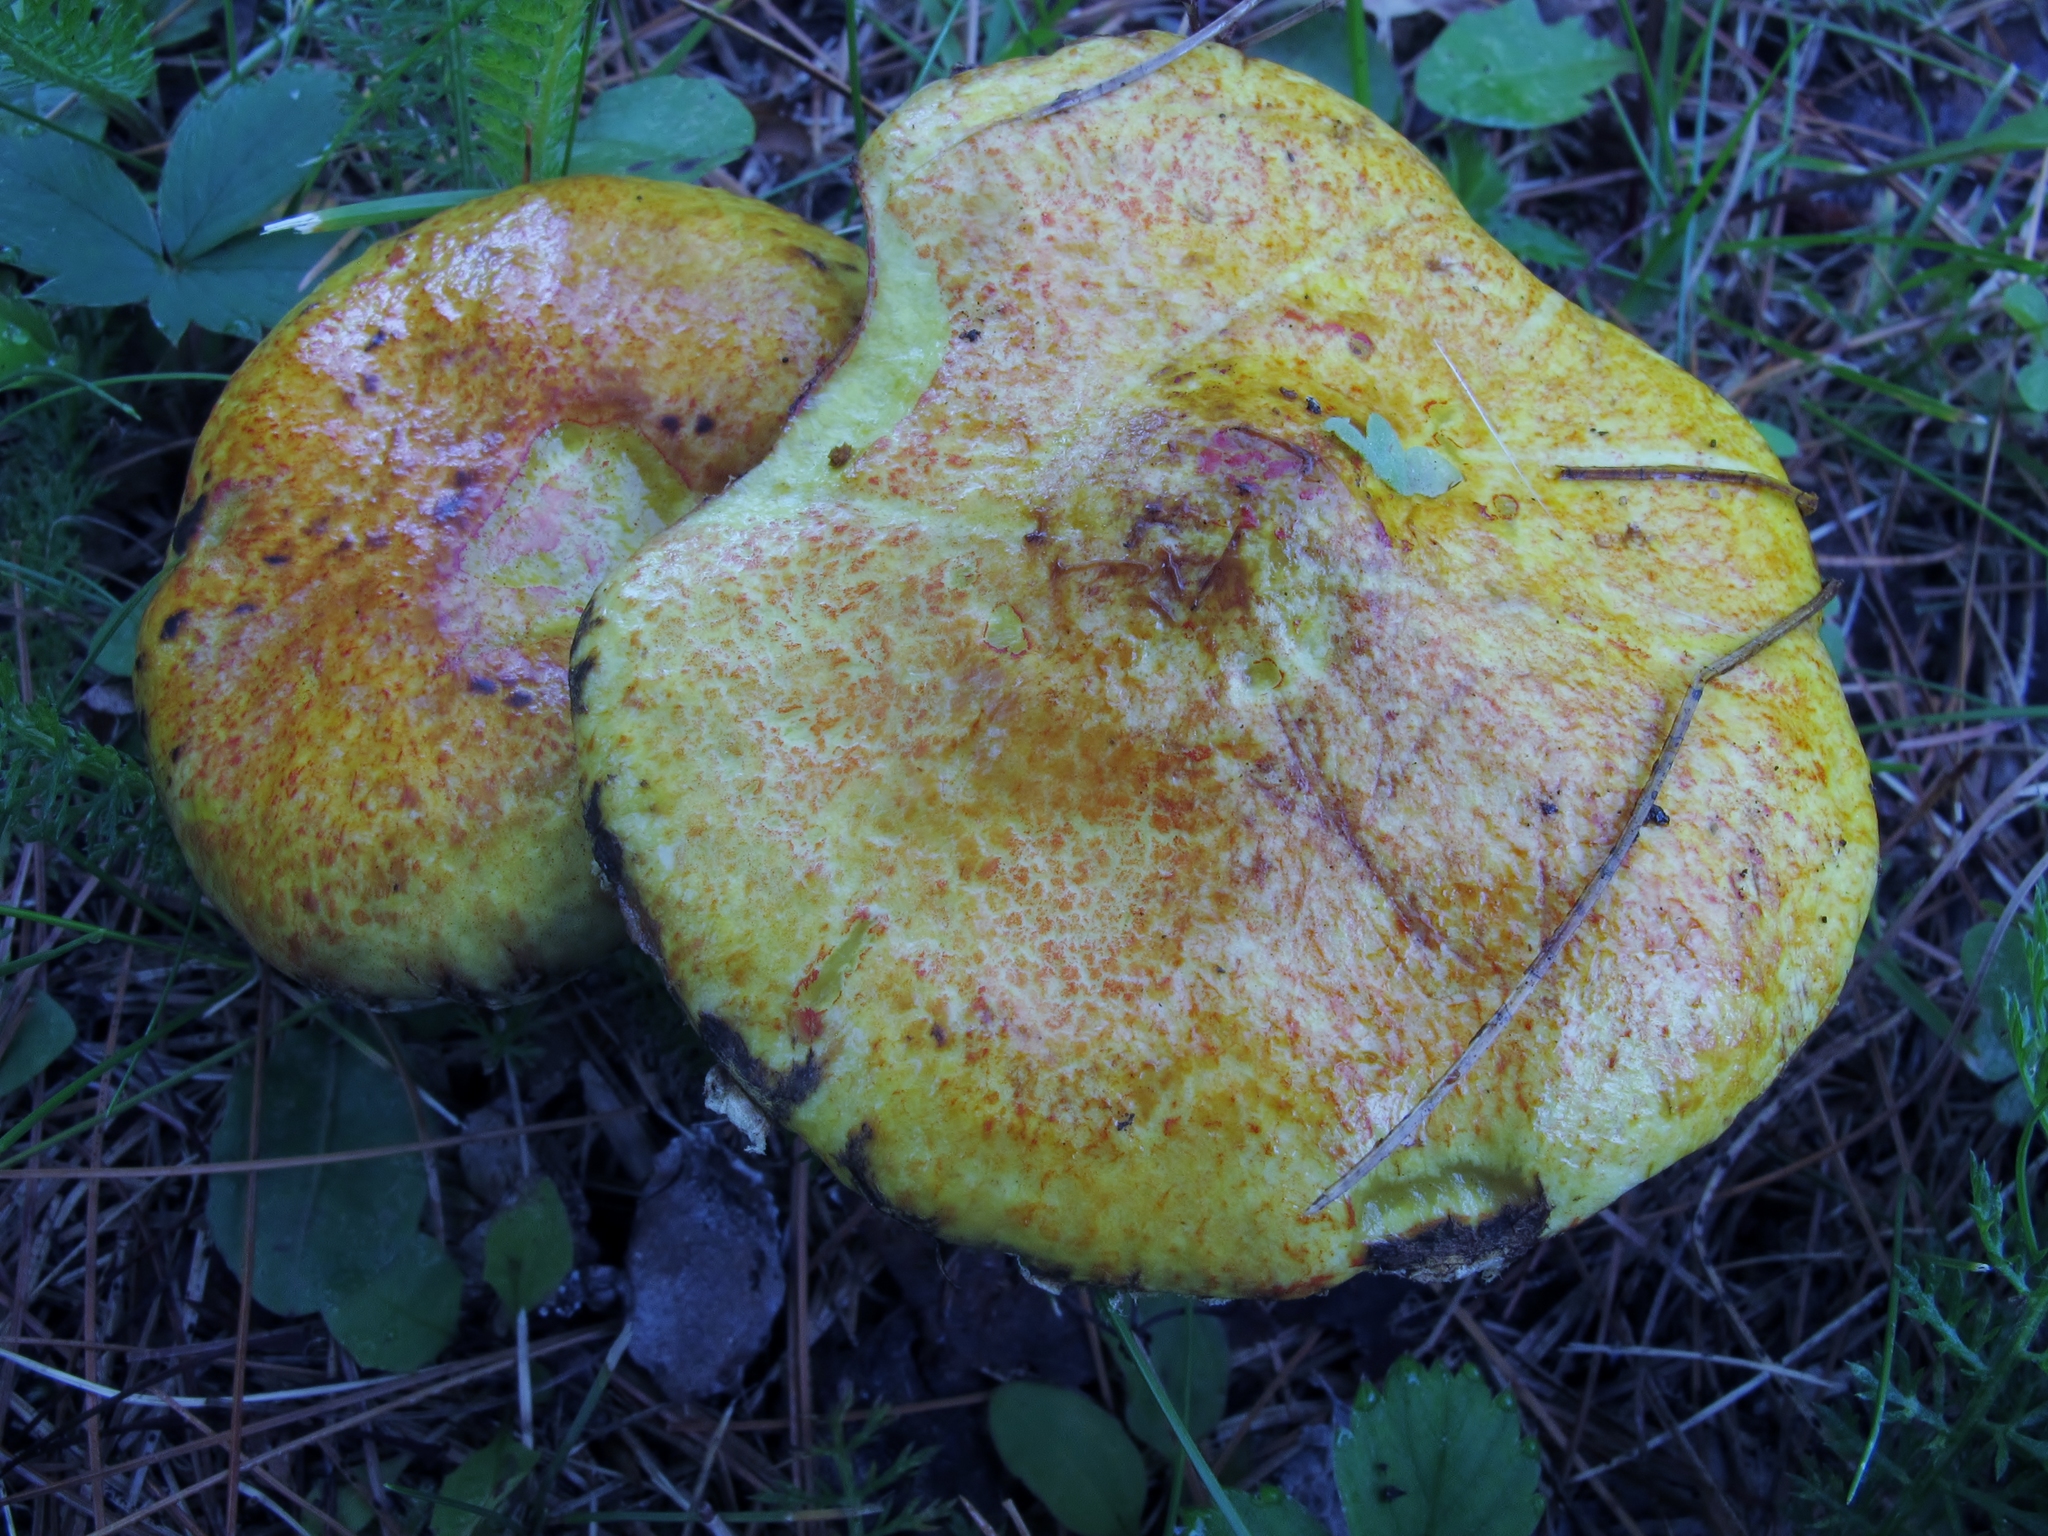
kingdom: Fungi
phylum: Basidiomycota
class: Agaricomycetes
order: Boletales
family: Suillaceae
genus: Suillus
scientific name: Suillus americanus
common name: Chicken fat mushroom
